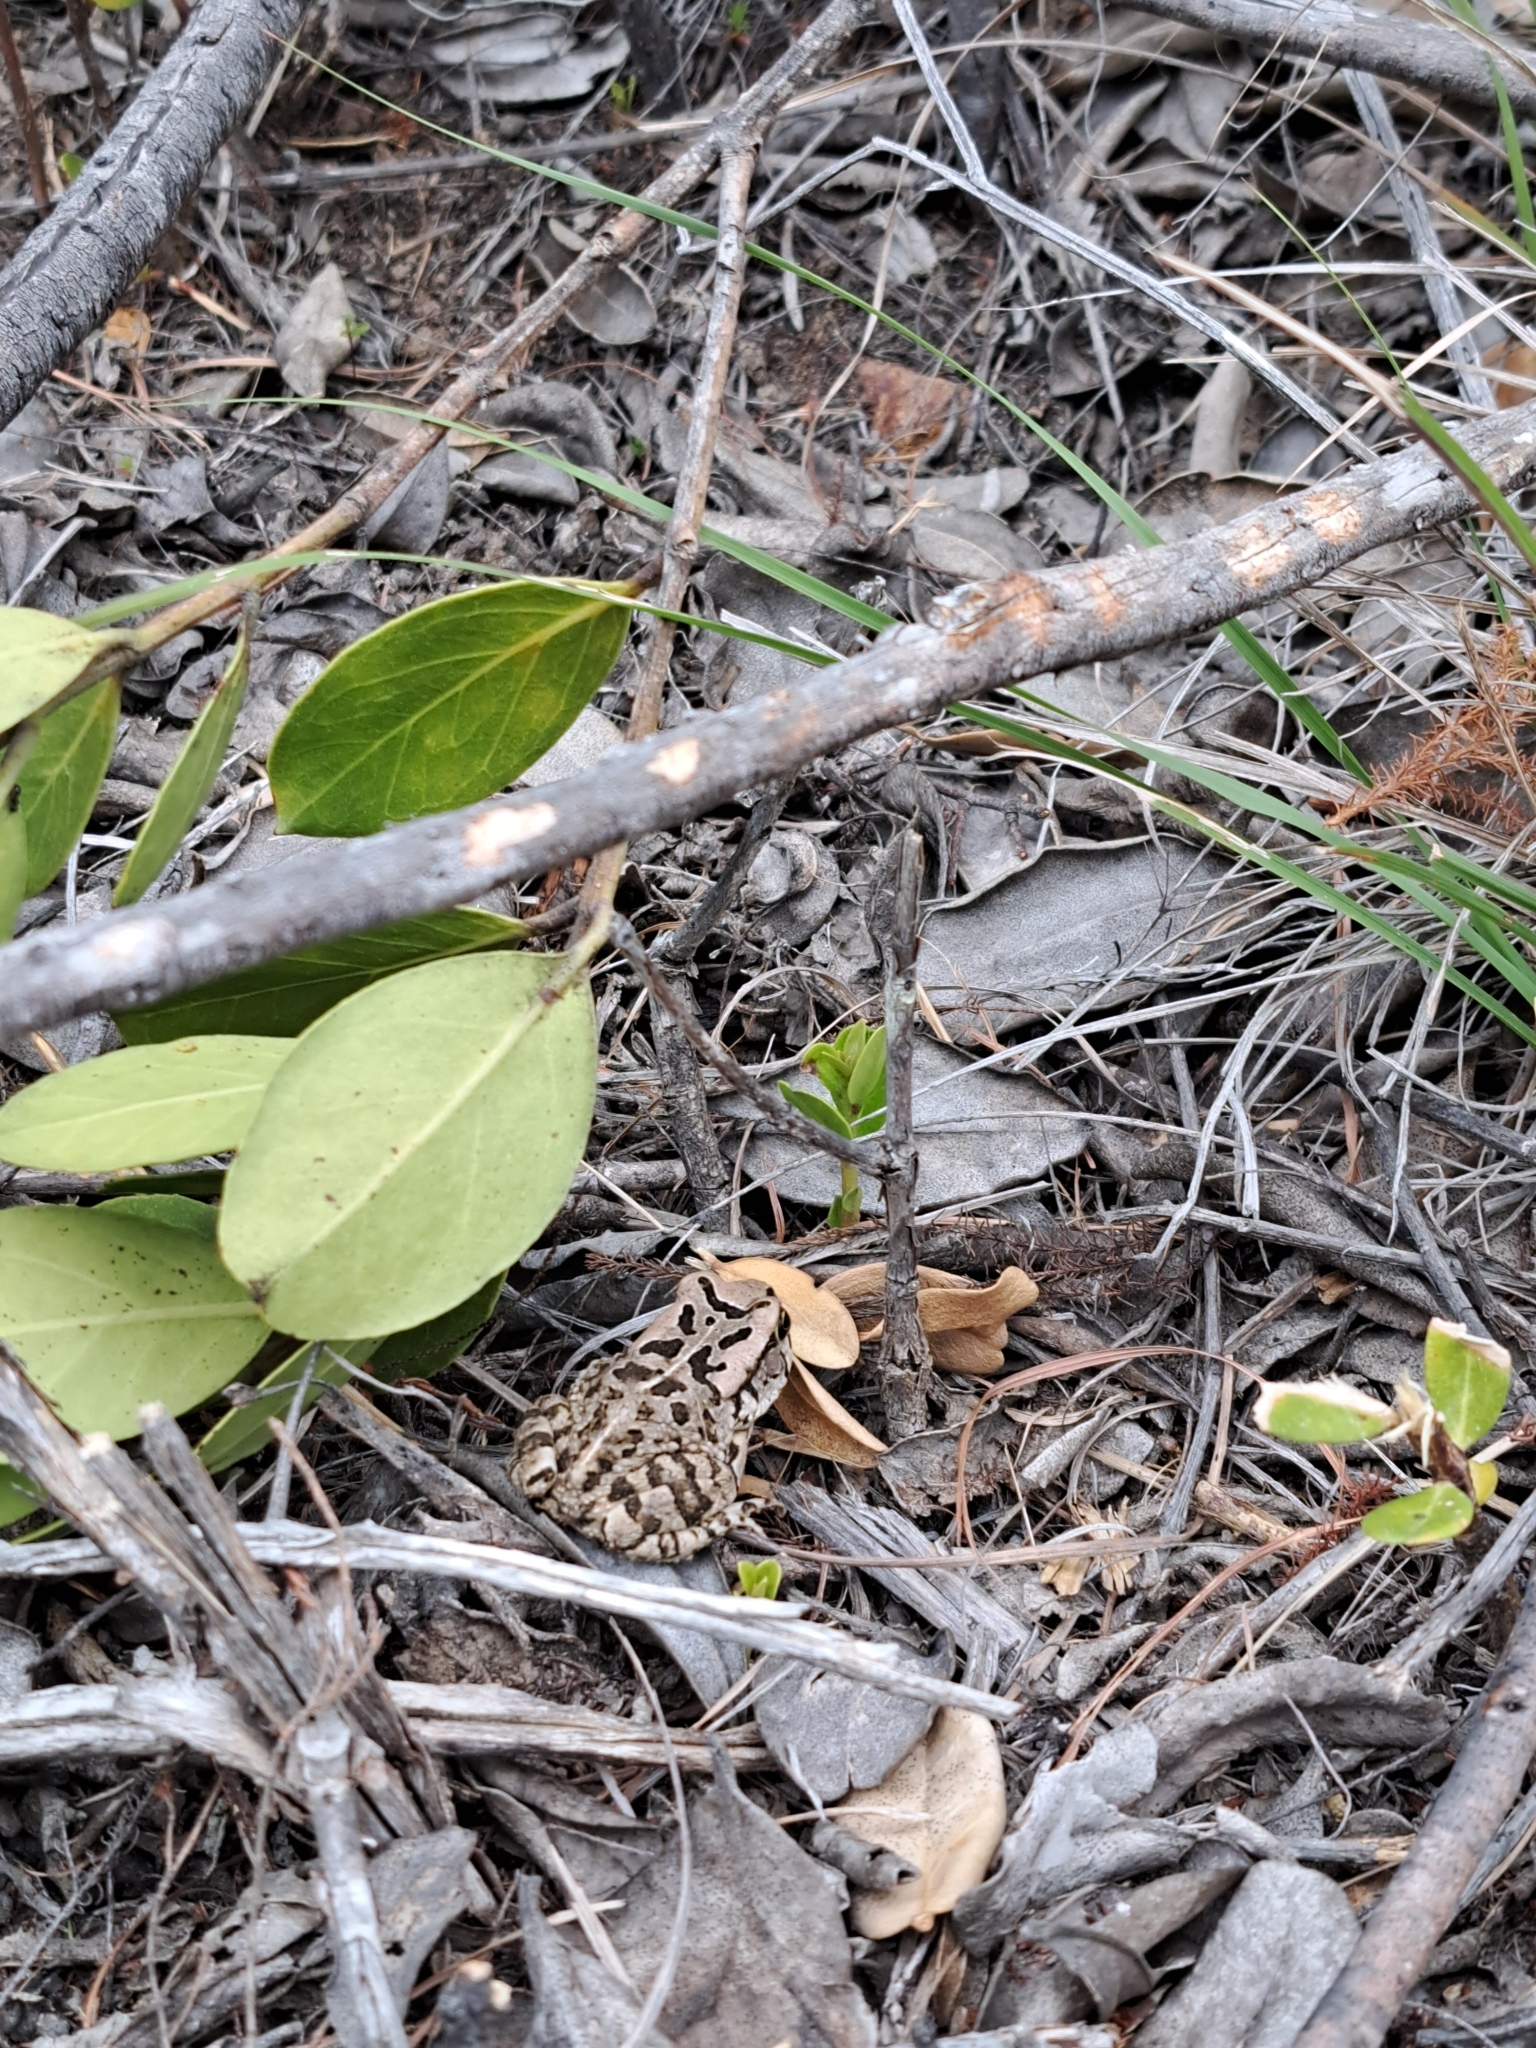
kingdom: Animalia
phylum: Chordata
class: Amphibia
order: Anura
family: Bufonidae
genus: Sclerophrys
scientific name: Sclerophrys capensis
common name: Ranger’s toad
